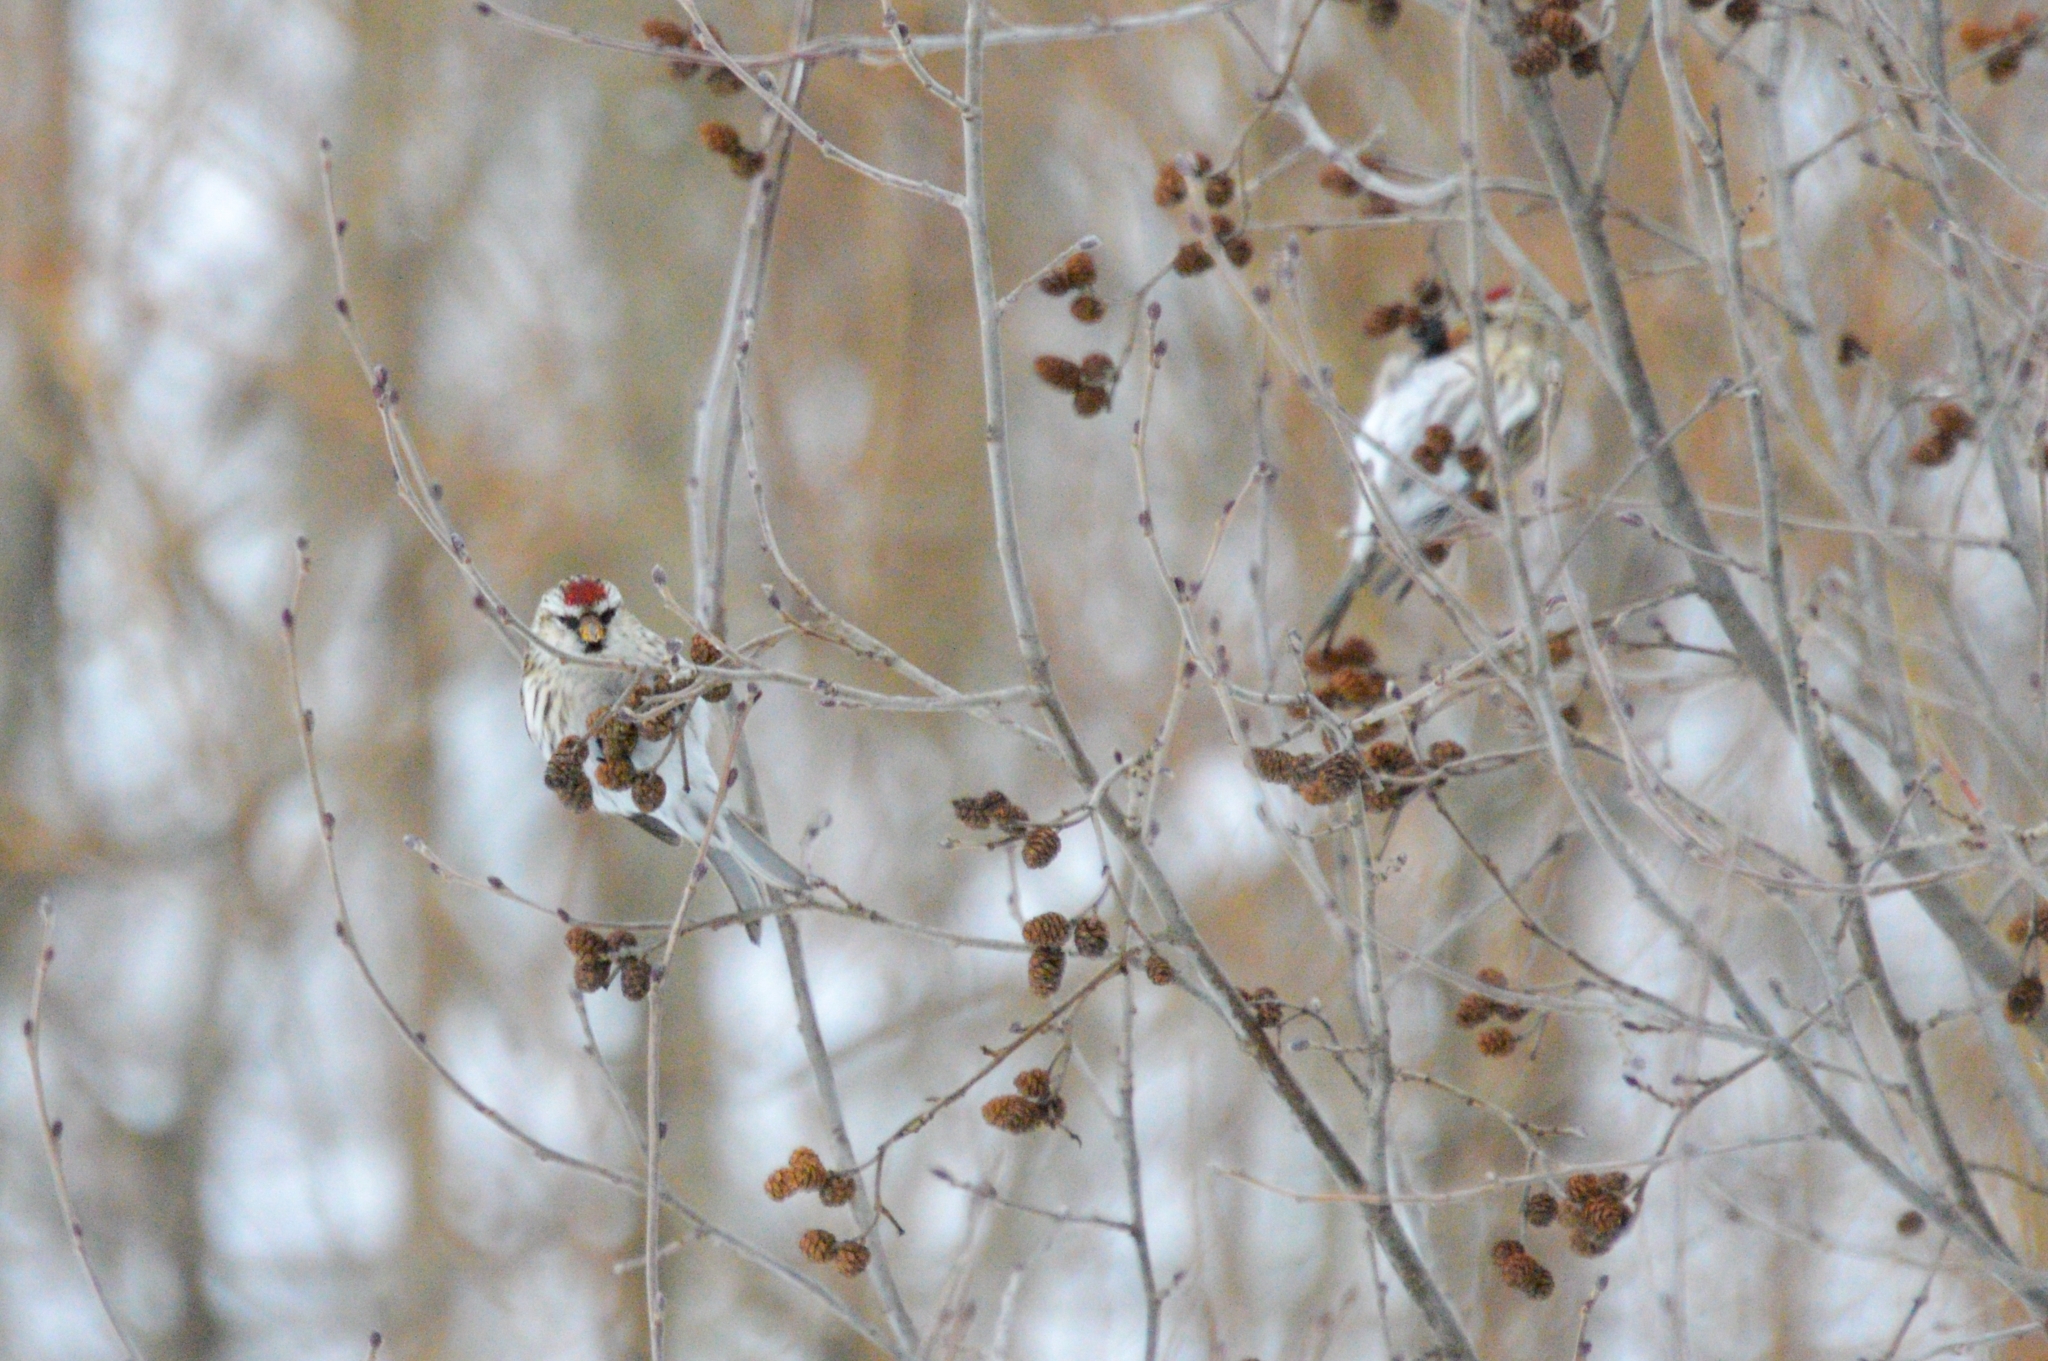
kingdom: Animalia
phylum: Chordata
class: Aves
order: Passeriformes
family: Fringillidae
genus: Acanthis
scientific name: Acanthis flammea
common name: Common redpoll
